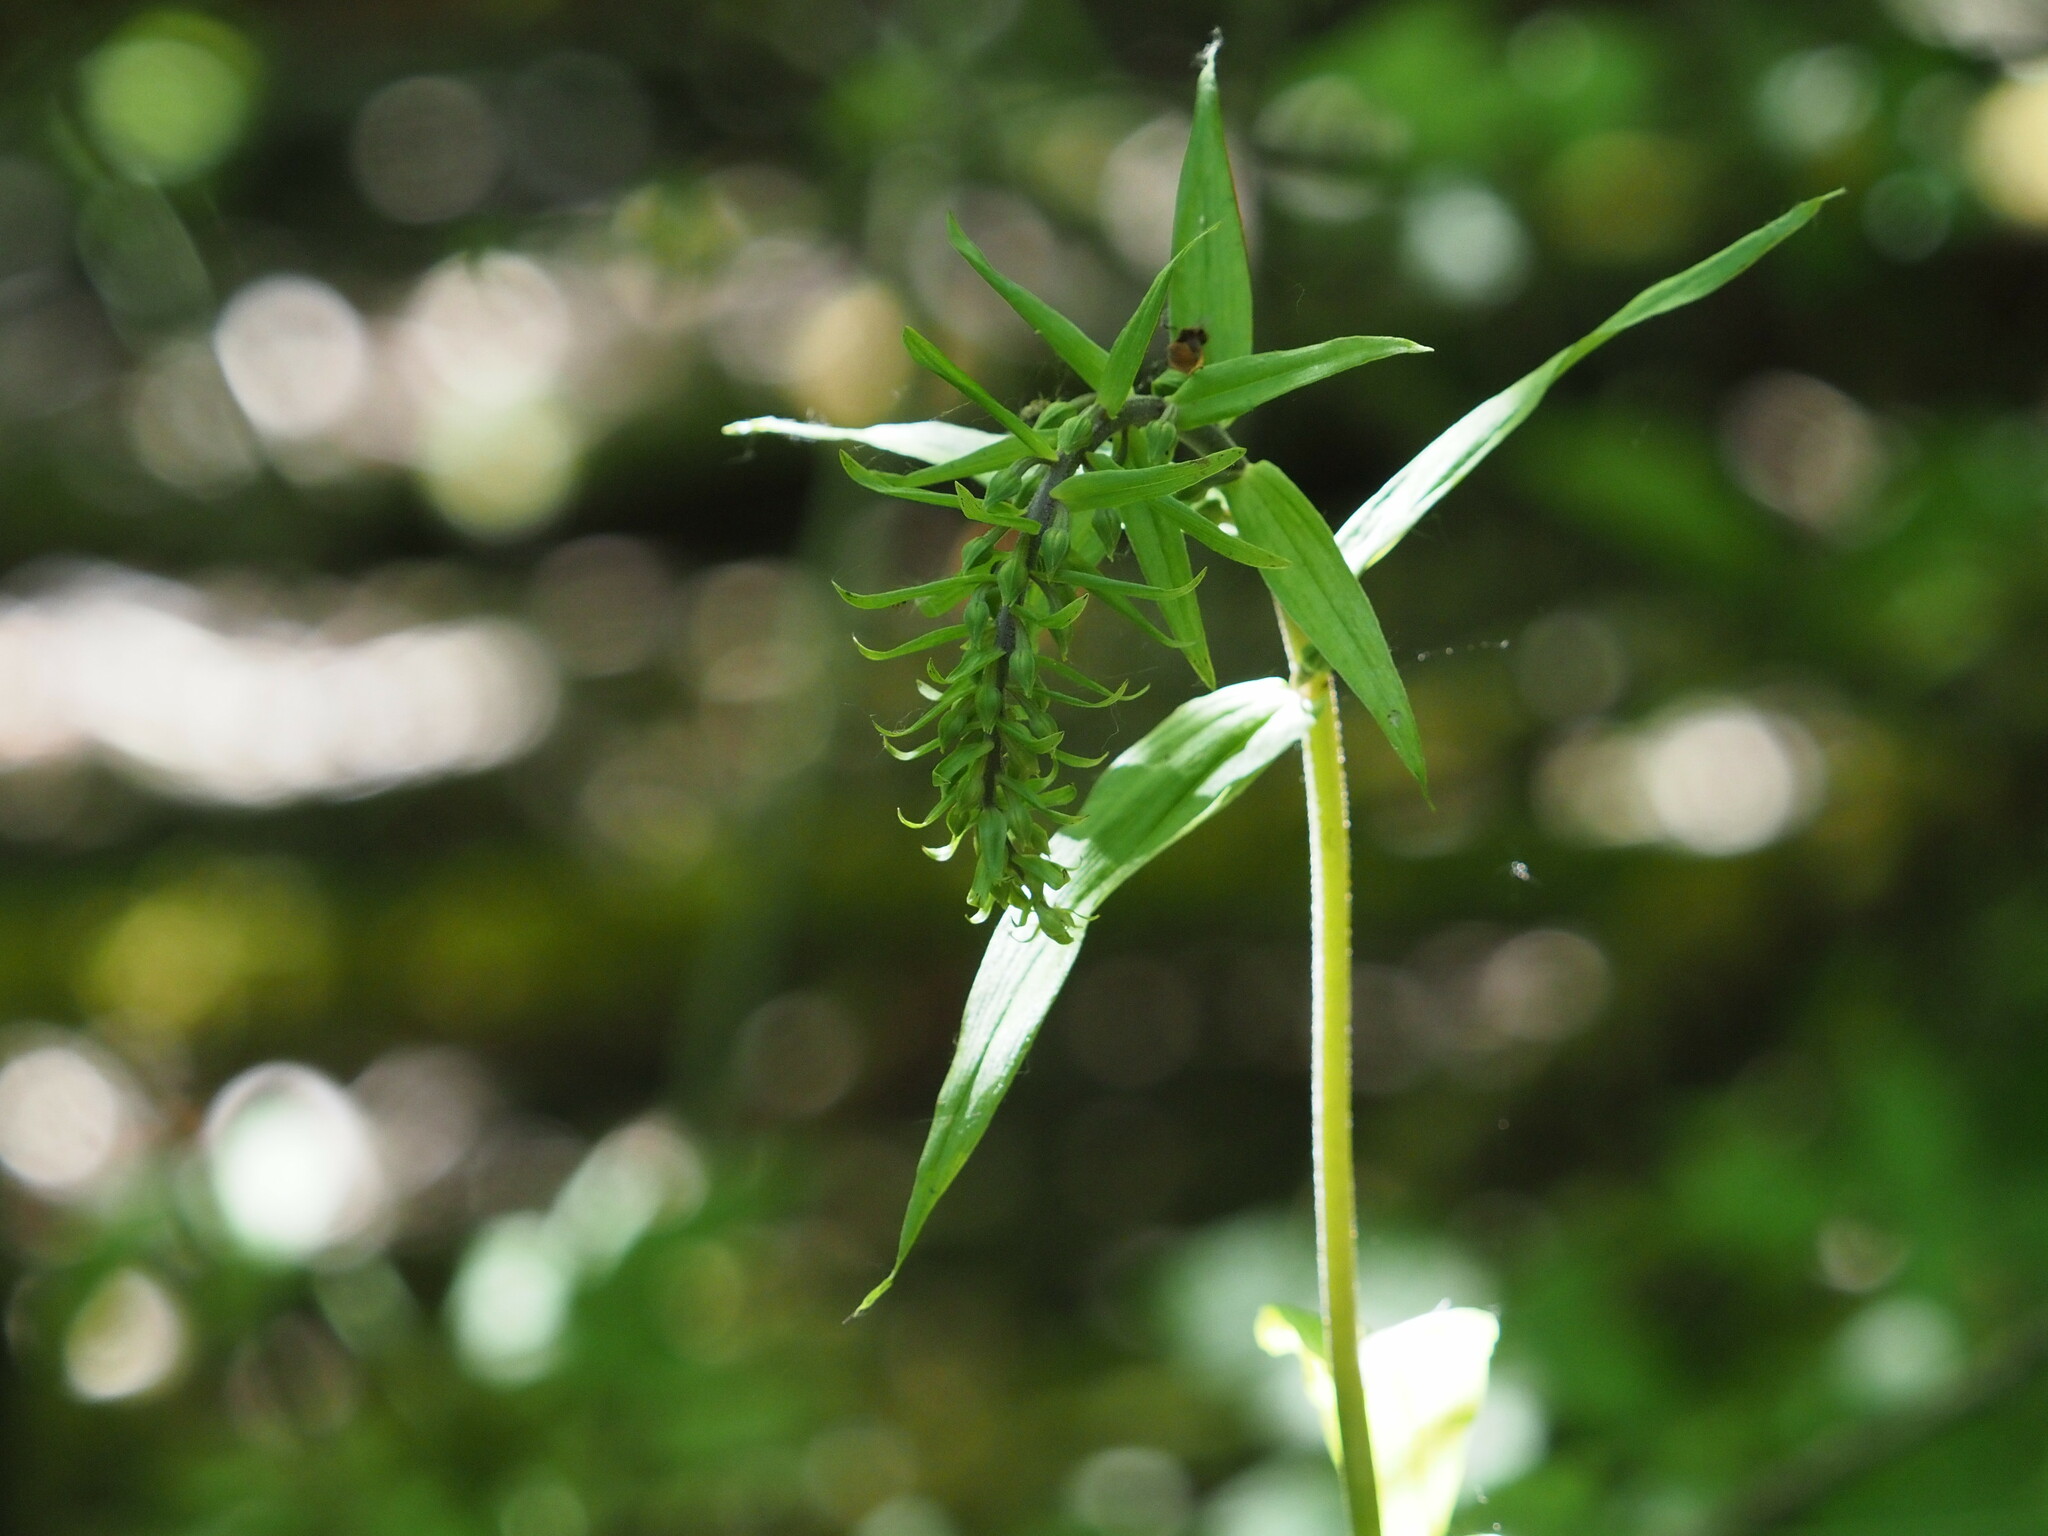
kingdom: Plantae
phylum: Tracheophyta
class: Liliopsida
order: Asparagales
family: Orchidaceae
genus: Epipactis
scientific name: Epipactis helleborine
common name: Broad-leaved helleborine
